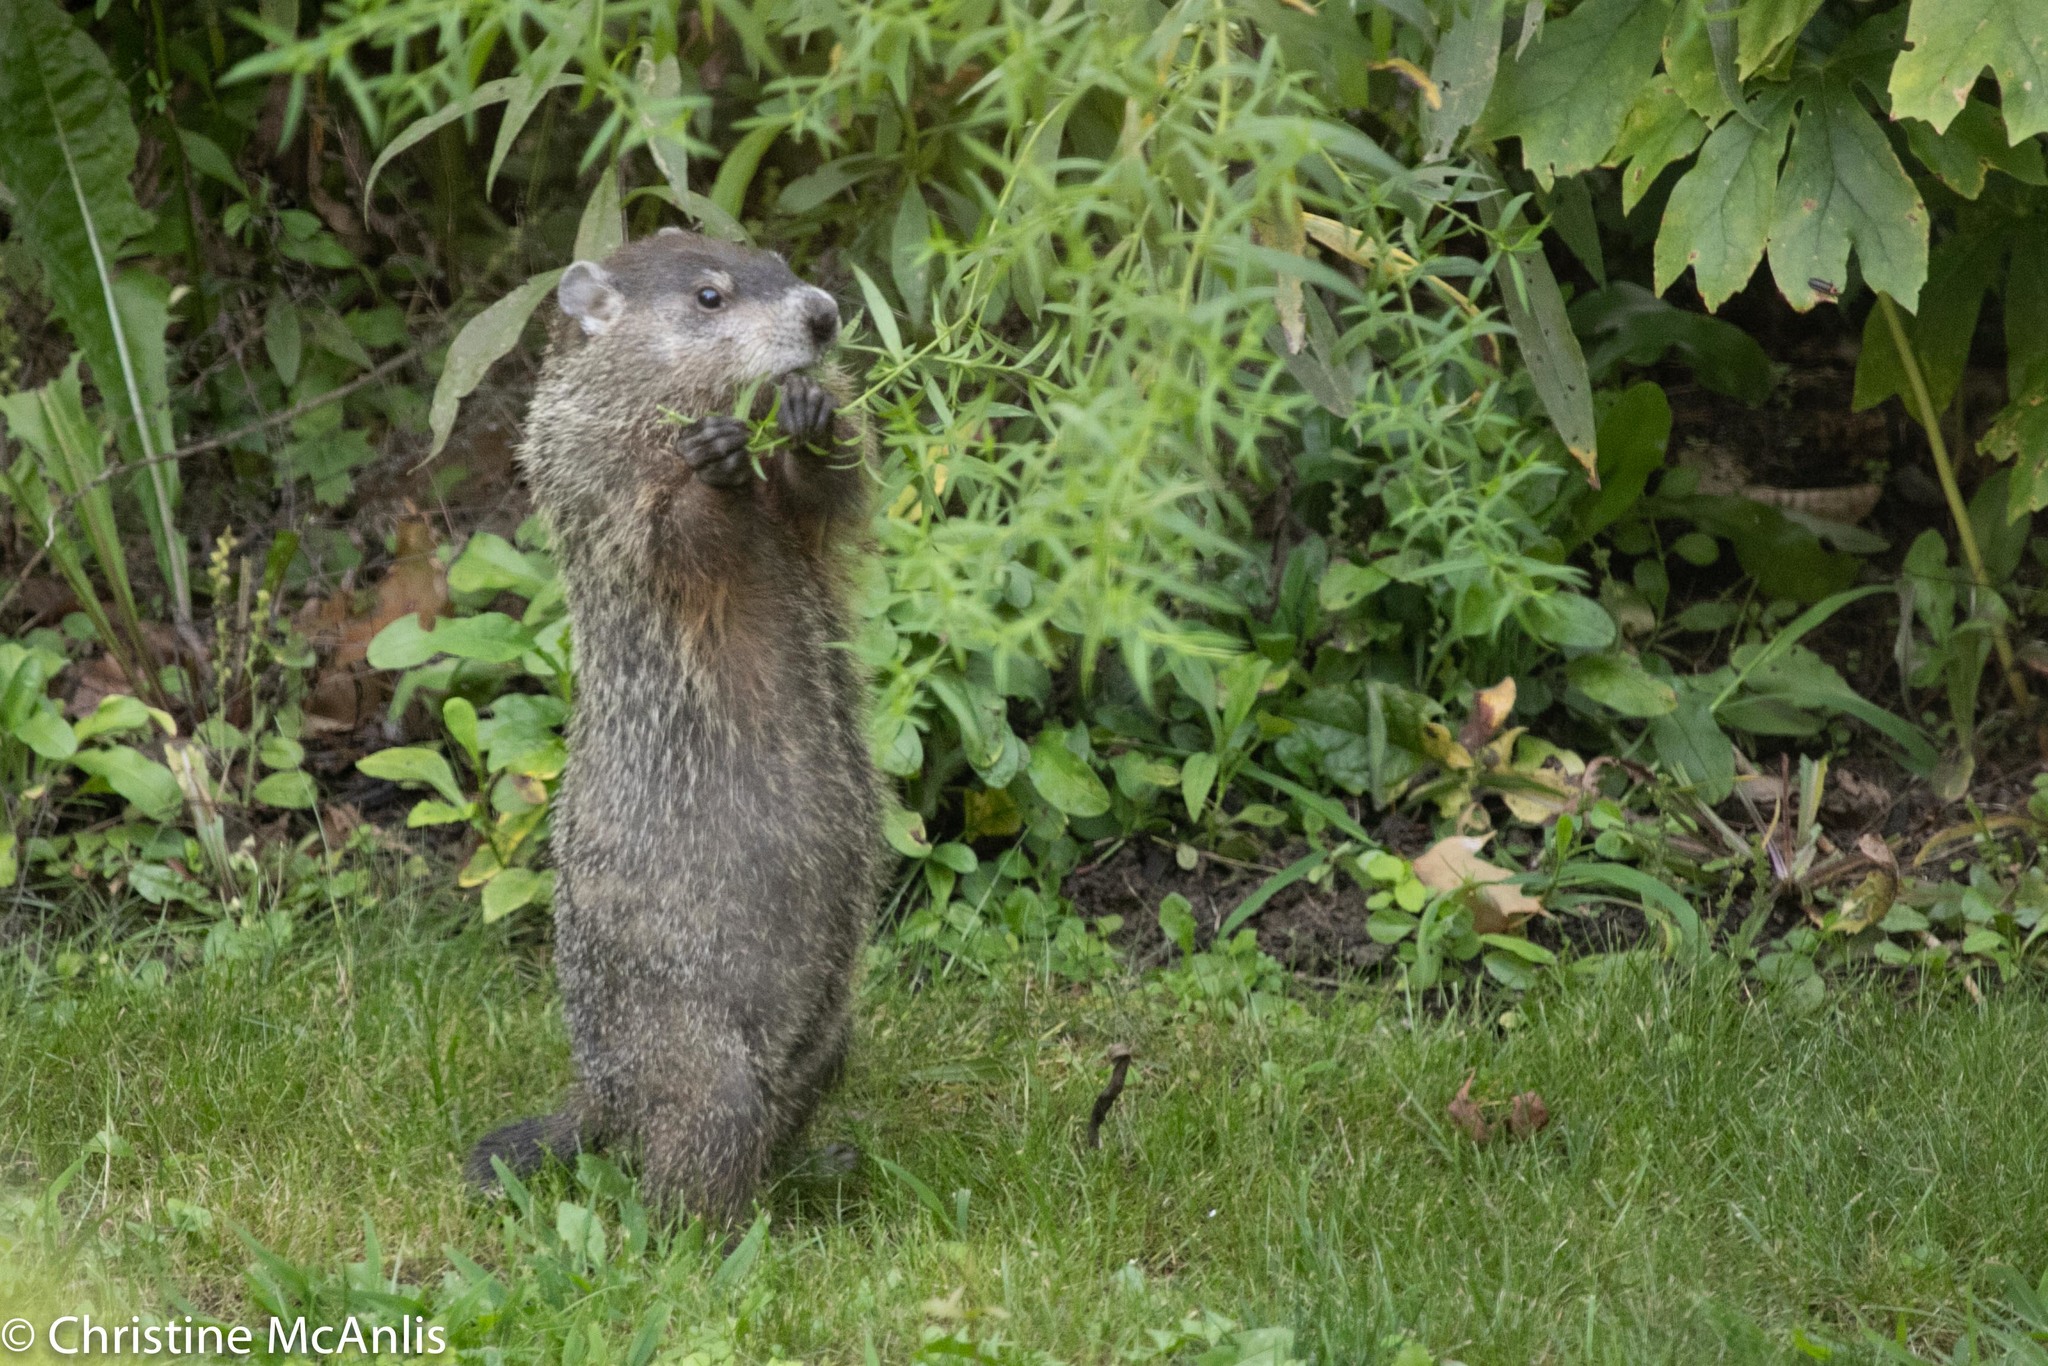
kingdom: Animalia
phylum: Chordata
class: Mammalia
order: Rodentia
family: Sciuridae
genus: Marmota
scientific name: Marmota monax
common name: Groundhog
